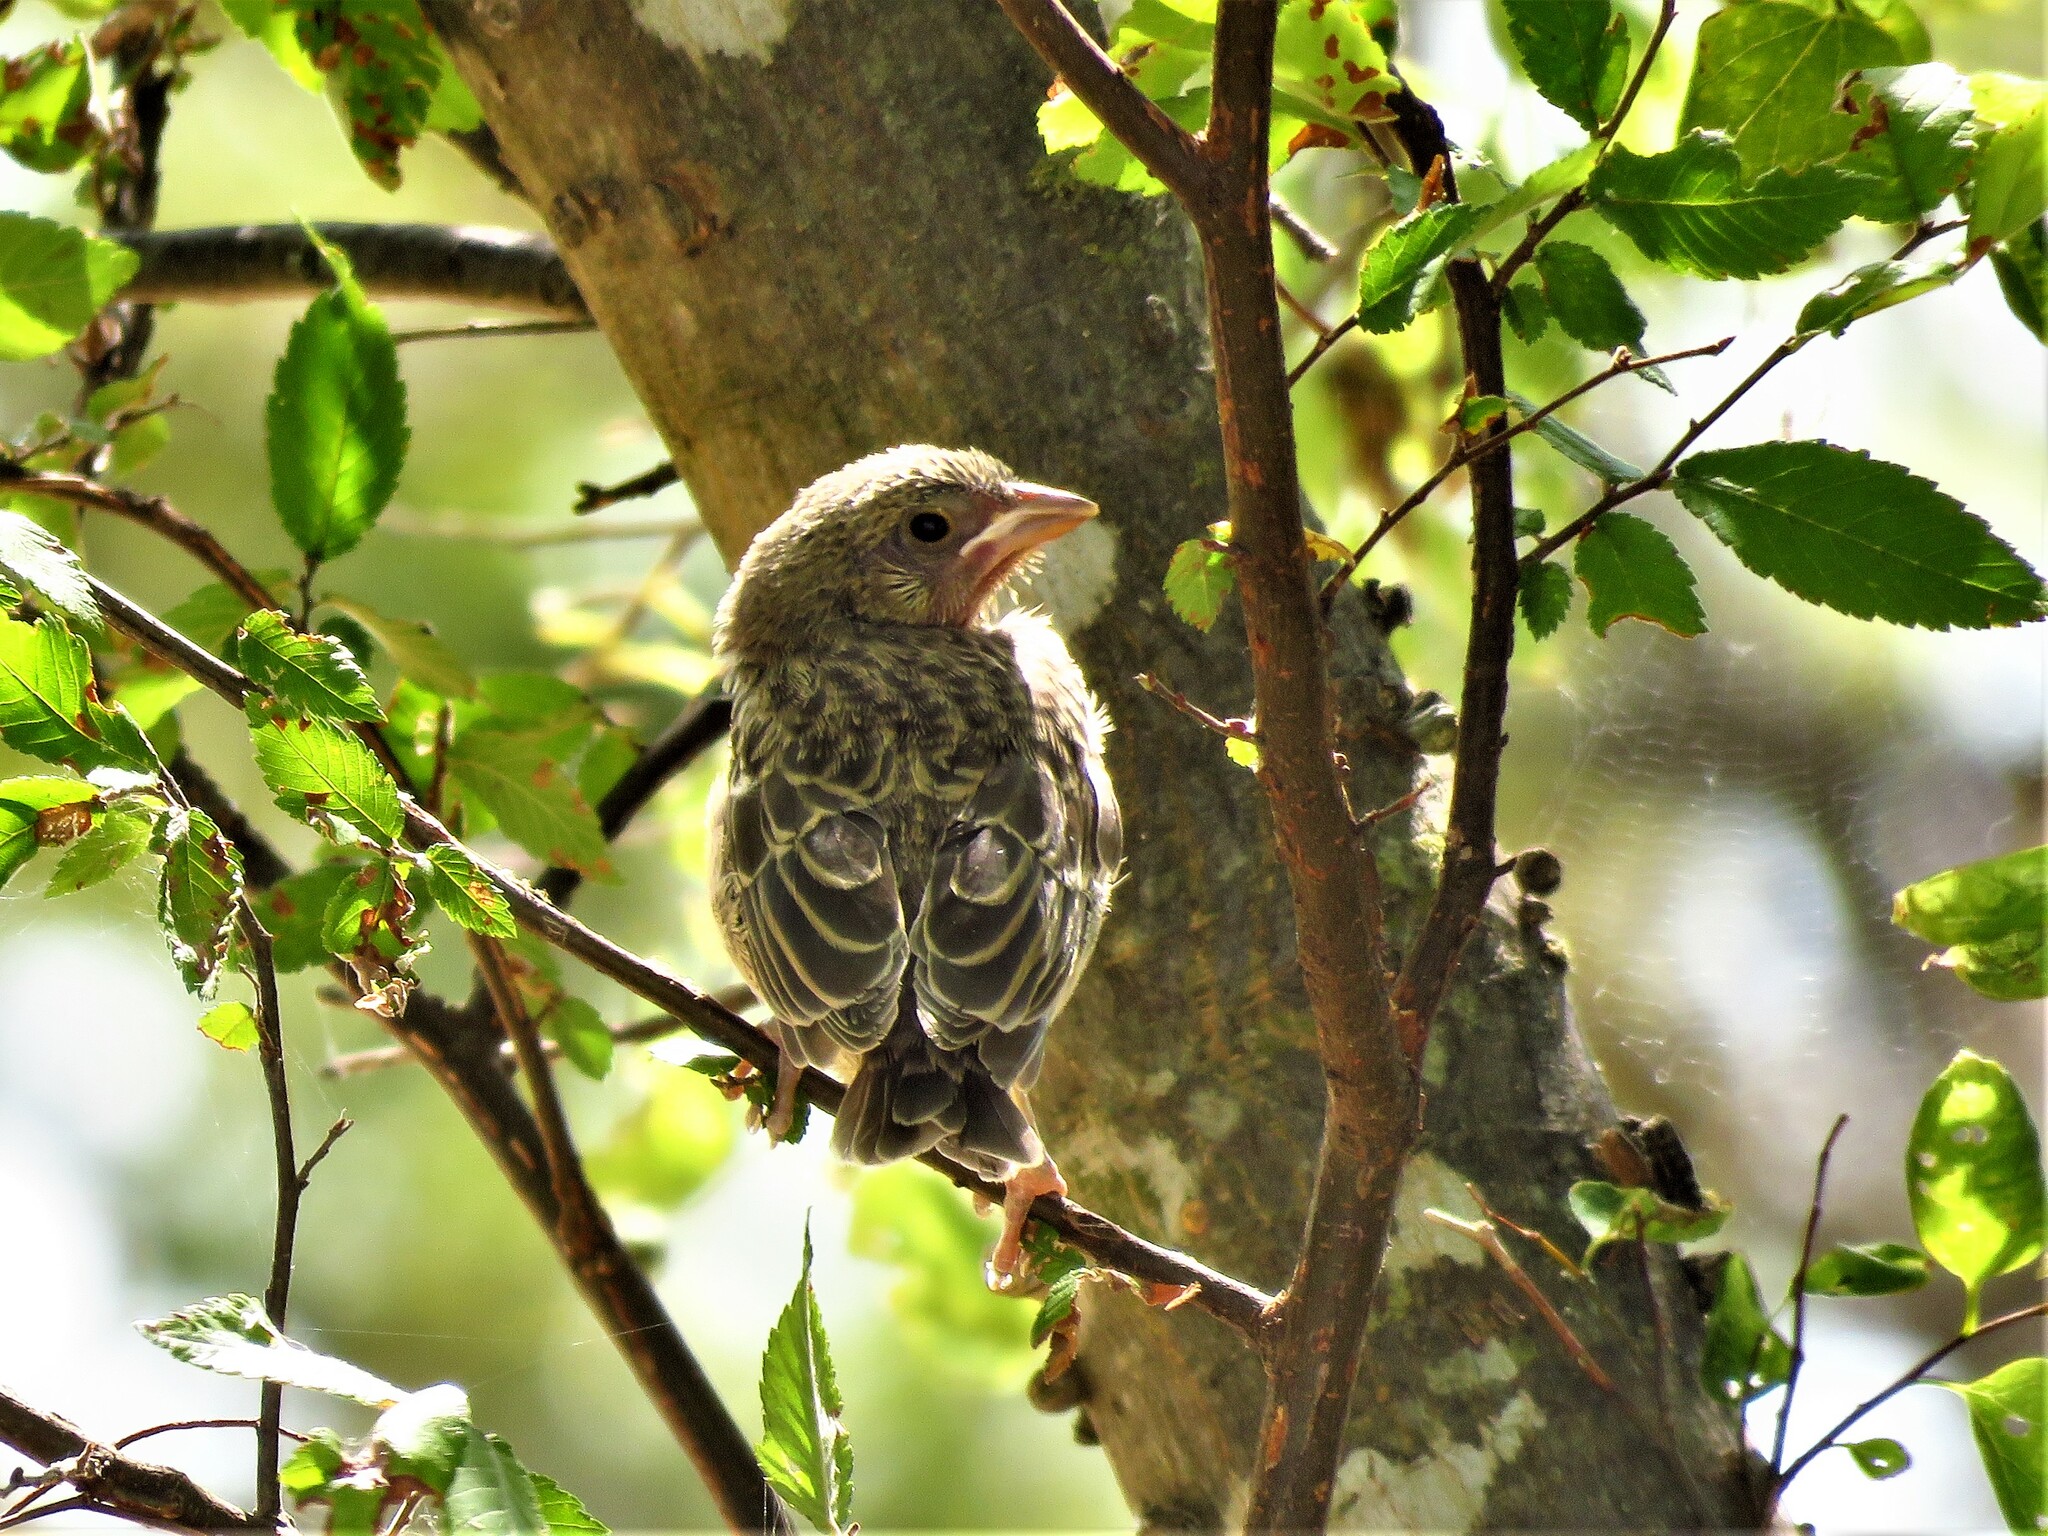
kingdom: Animalia
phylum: Chordata
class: Aves
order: Passeriformes
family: Icteridae
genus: Molothrus
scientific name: Molothrus ater
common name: Brown-headed cowbird
